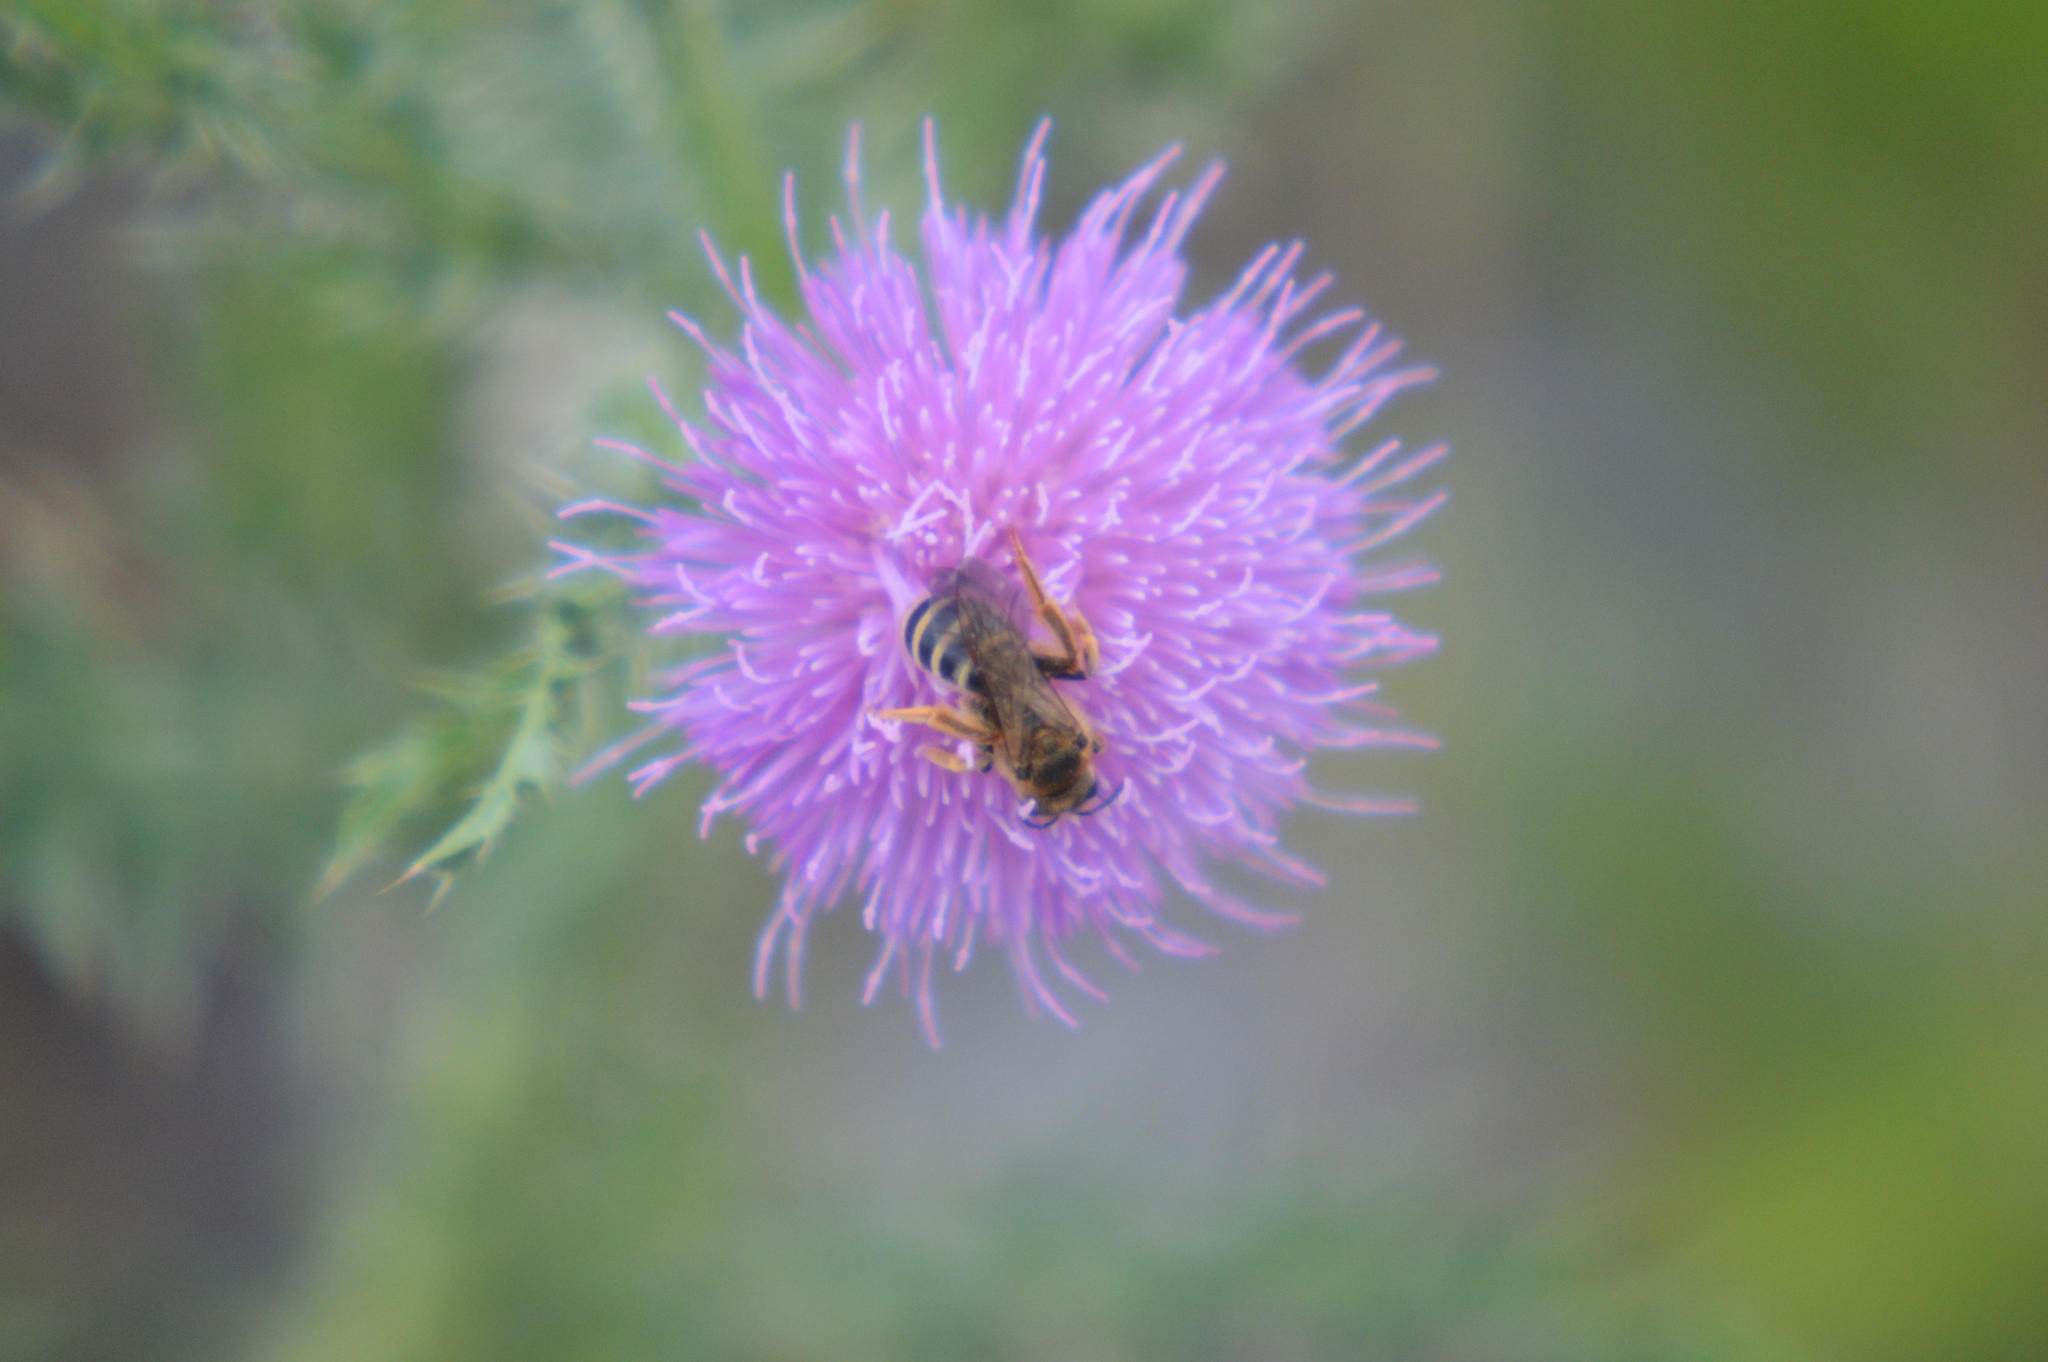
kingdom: Animalia
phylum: Arthropoda
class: Insecta
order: Hymenoptera
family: Halictidae
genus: Hexataenites
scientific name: Hexataenites
